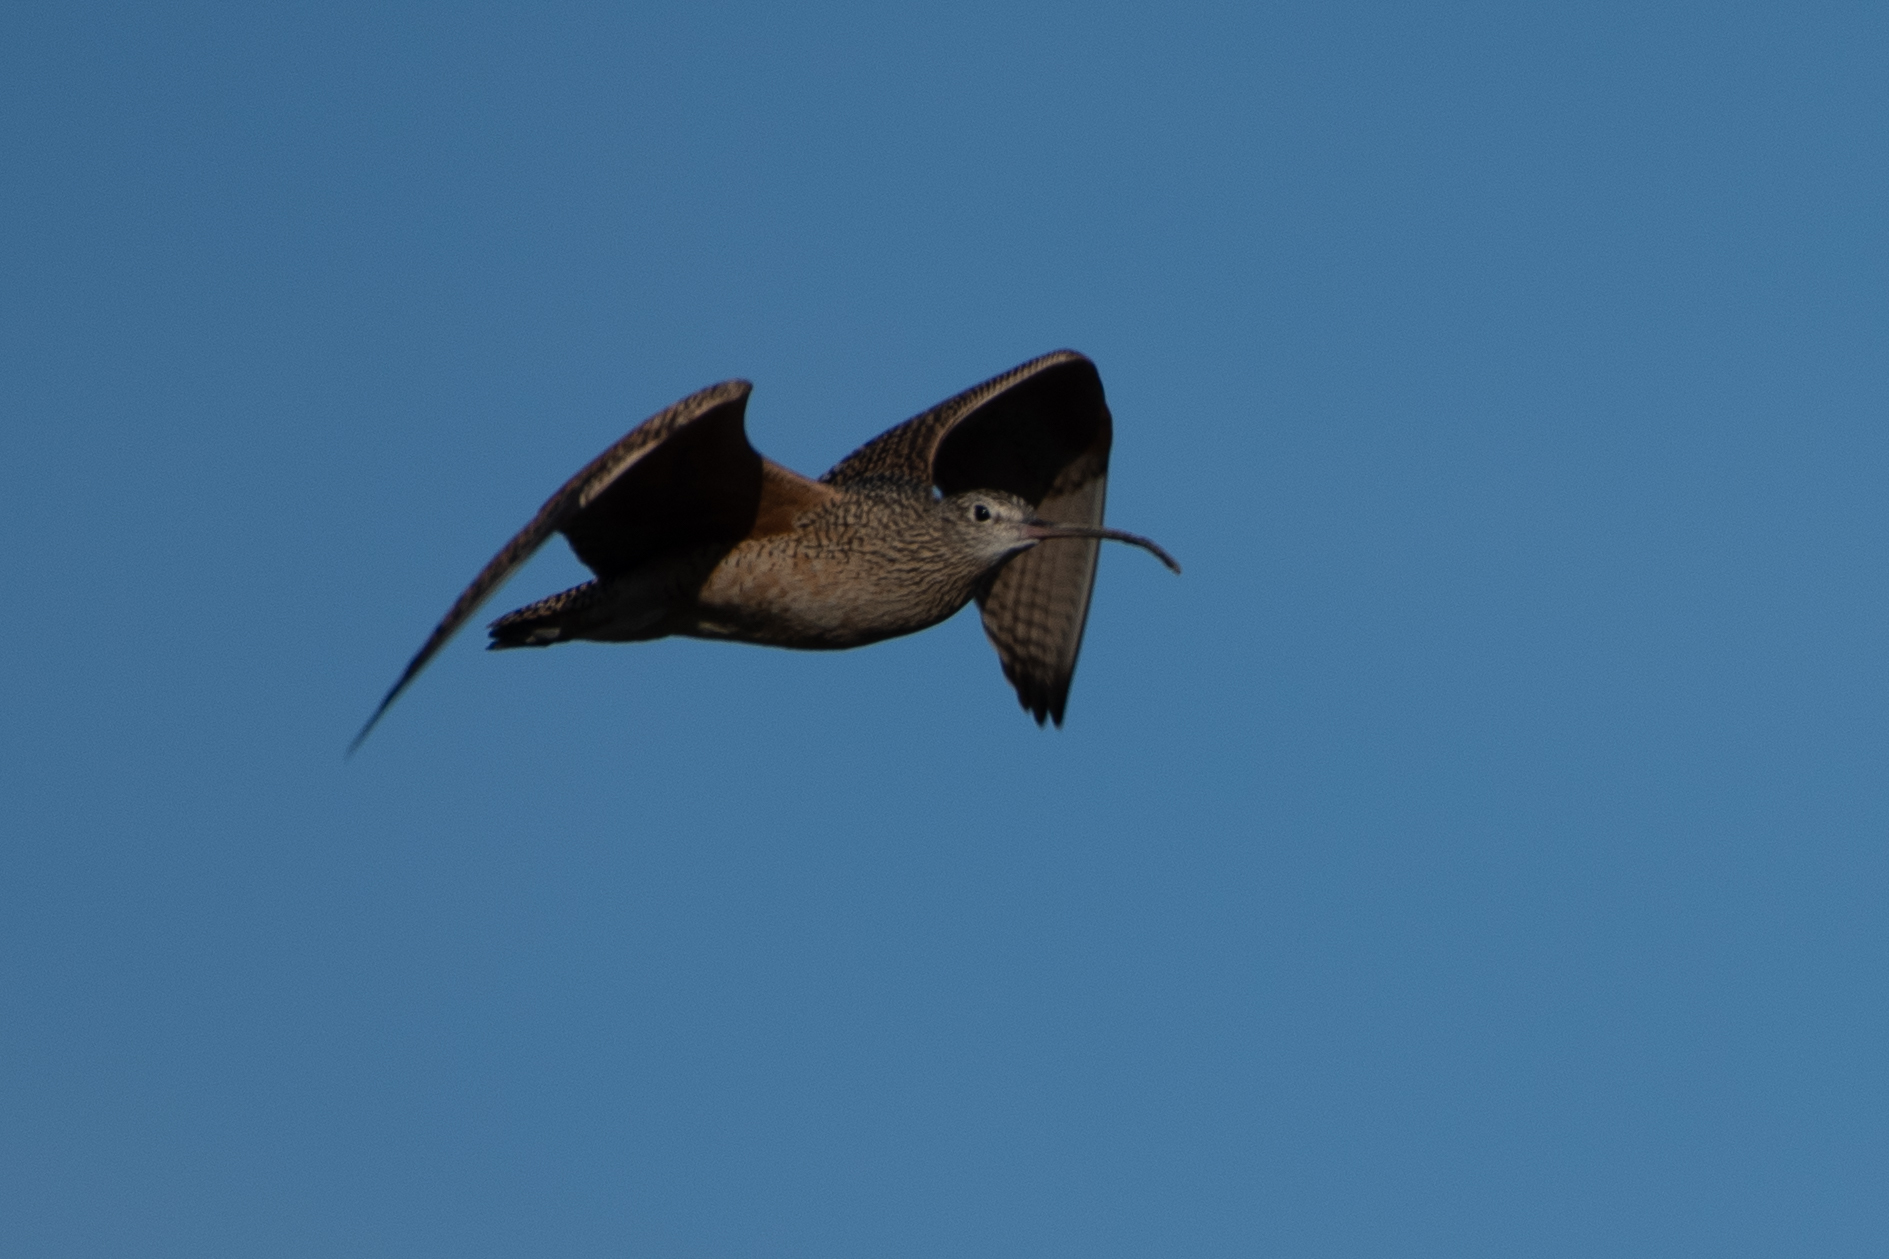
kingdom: Animalia
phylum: Chordata
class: Aves
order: Charadriiformes
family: Scolopacidae
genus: Numenius
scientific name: Numenius americanus
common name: Long-billed curlew
